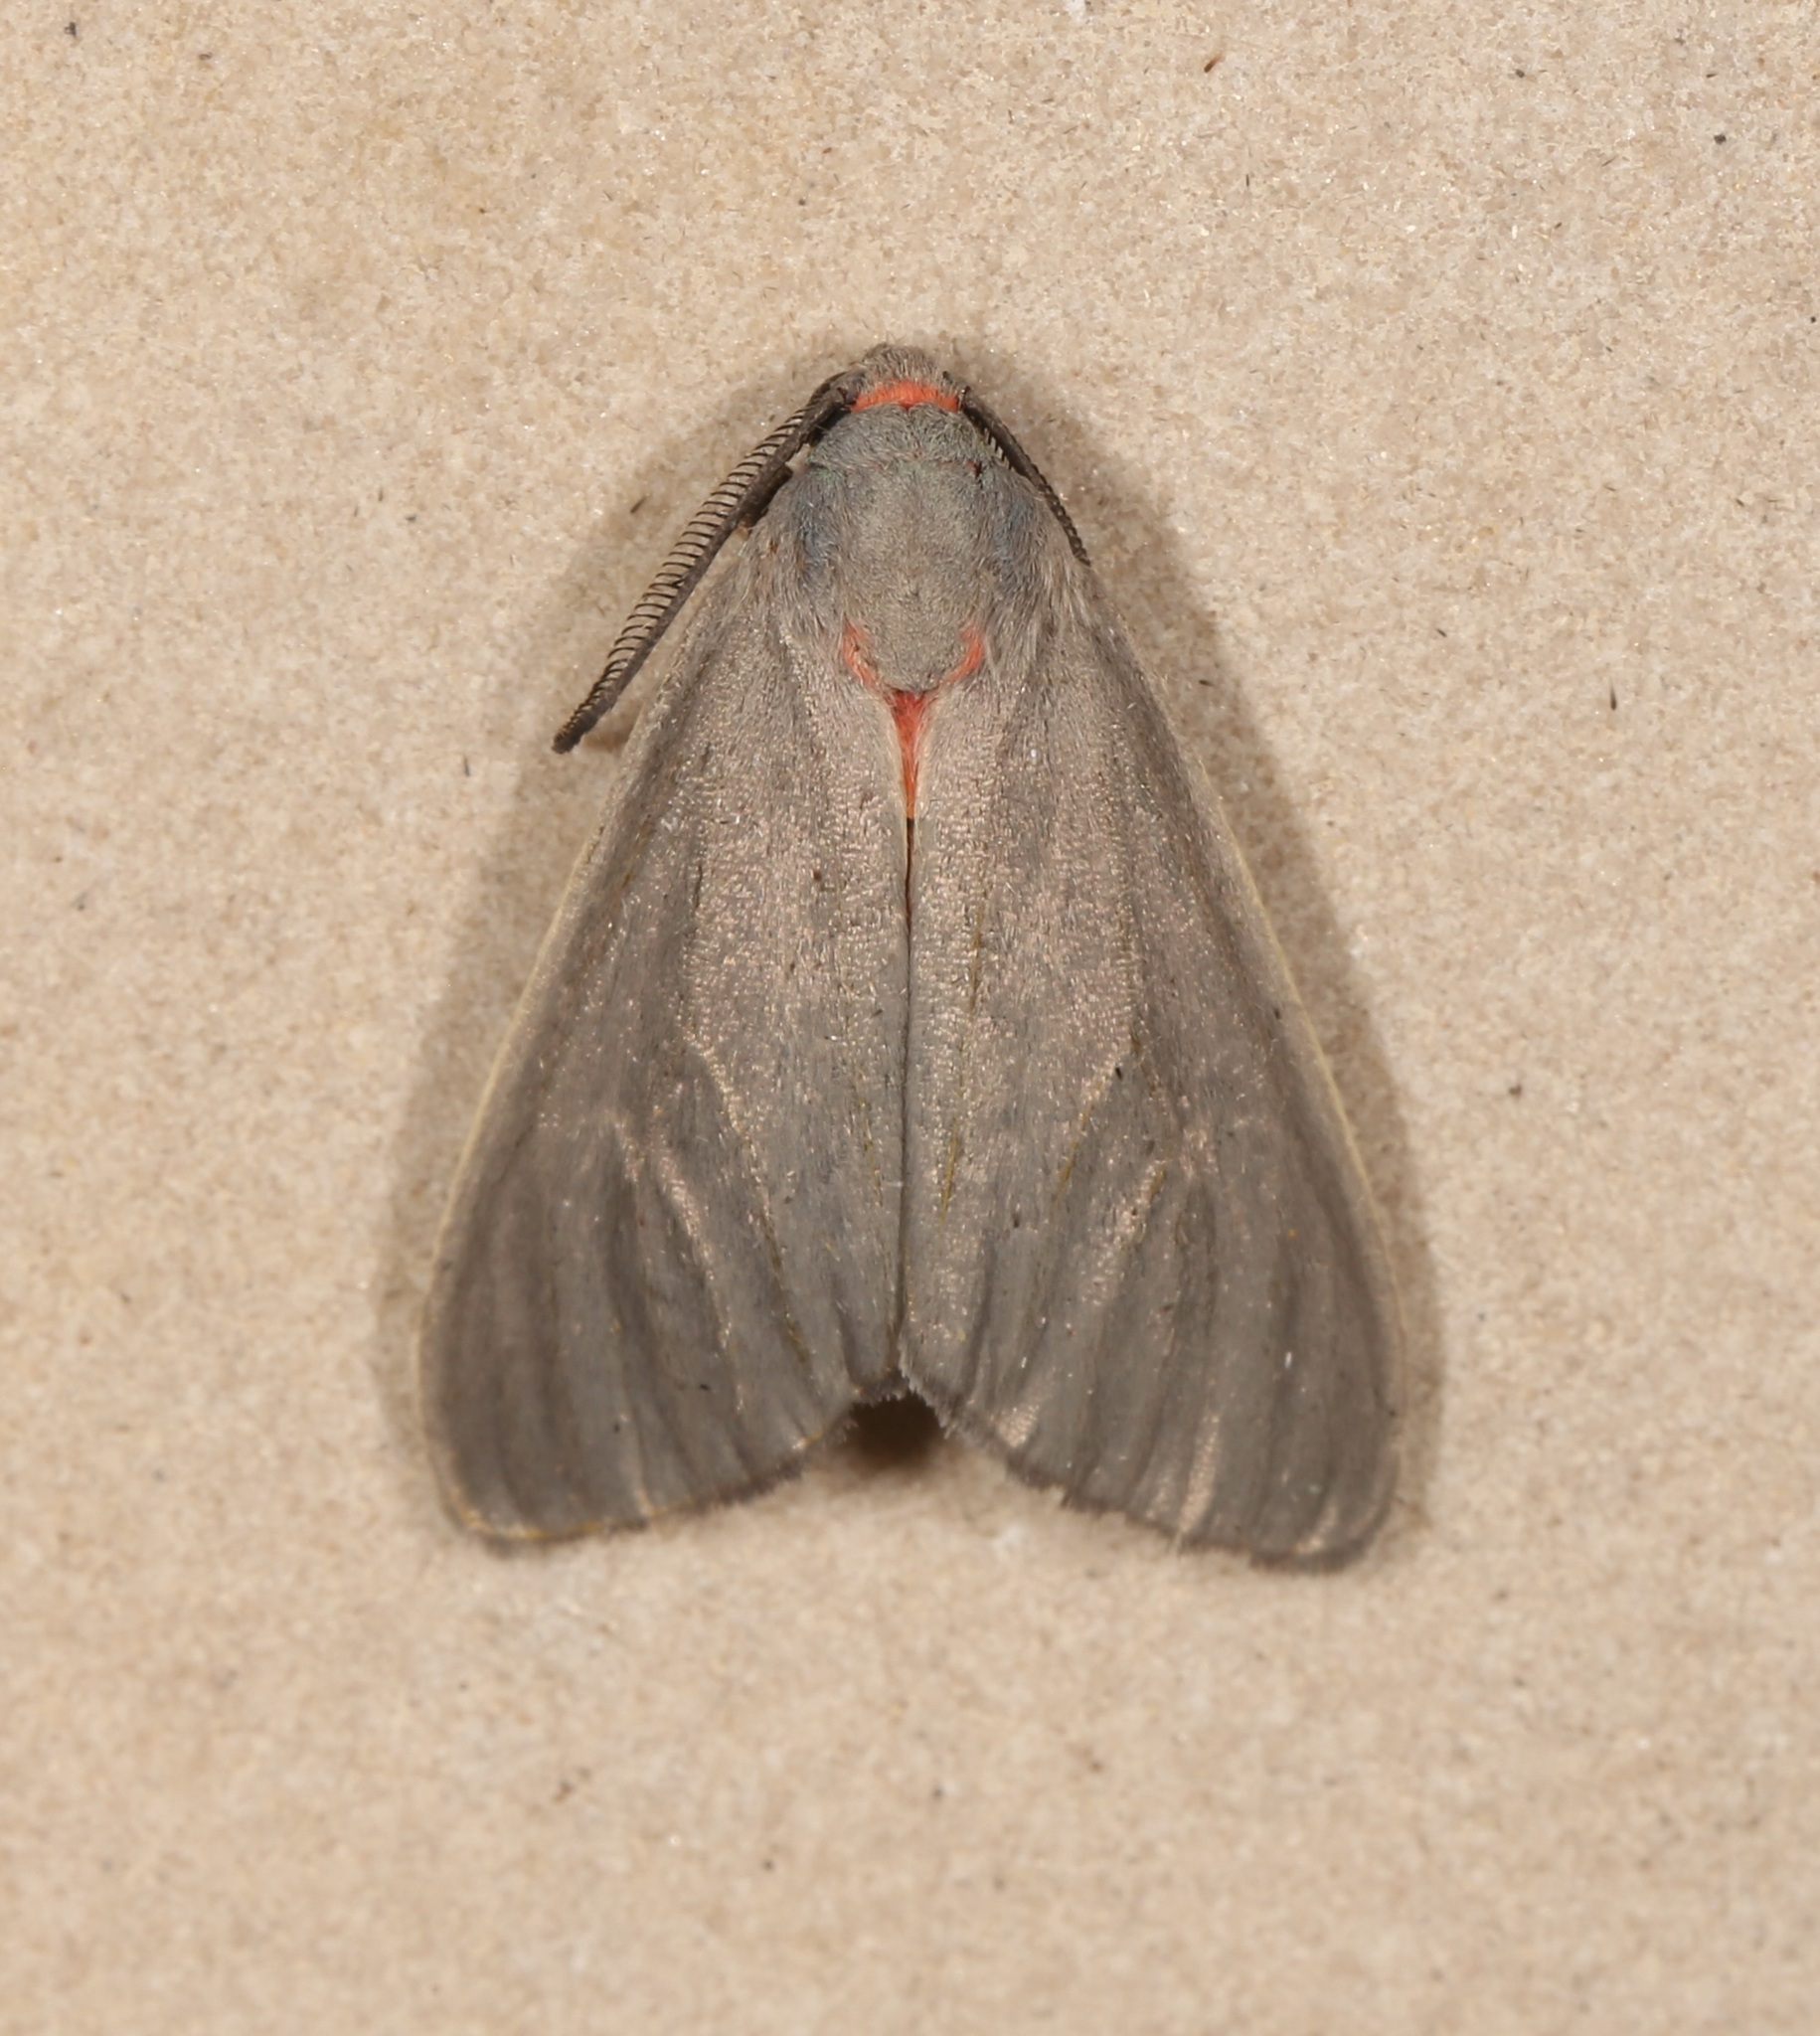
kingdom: Animalia
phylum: Arthropoda
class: Insecta
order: Lepidoptera
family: Erebidae
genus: Pygarctia
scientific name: Pygarctia murina
